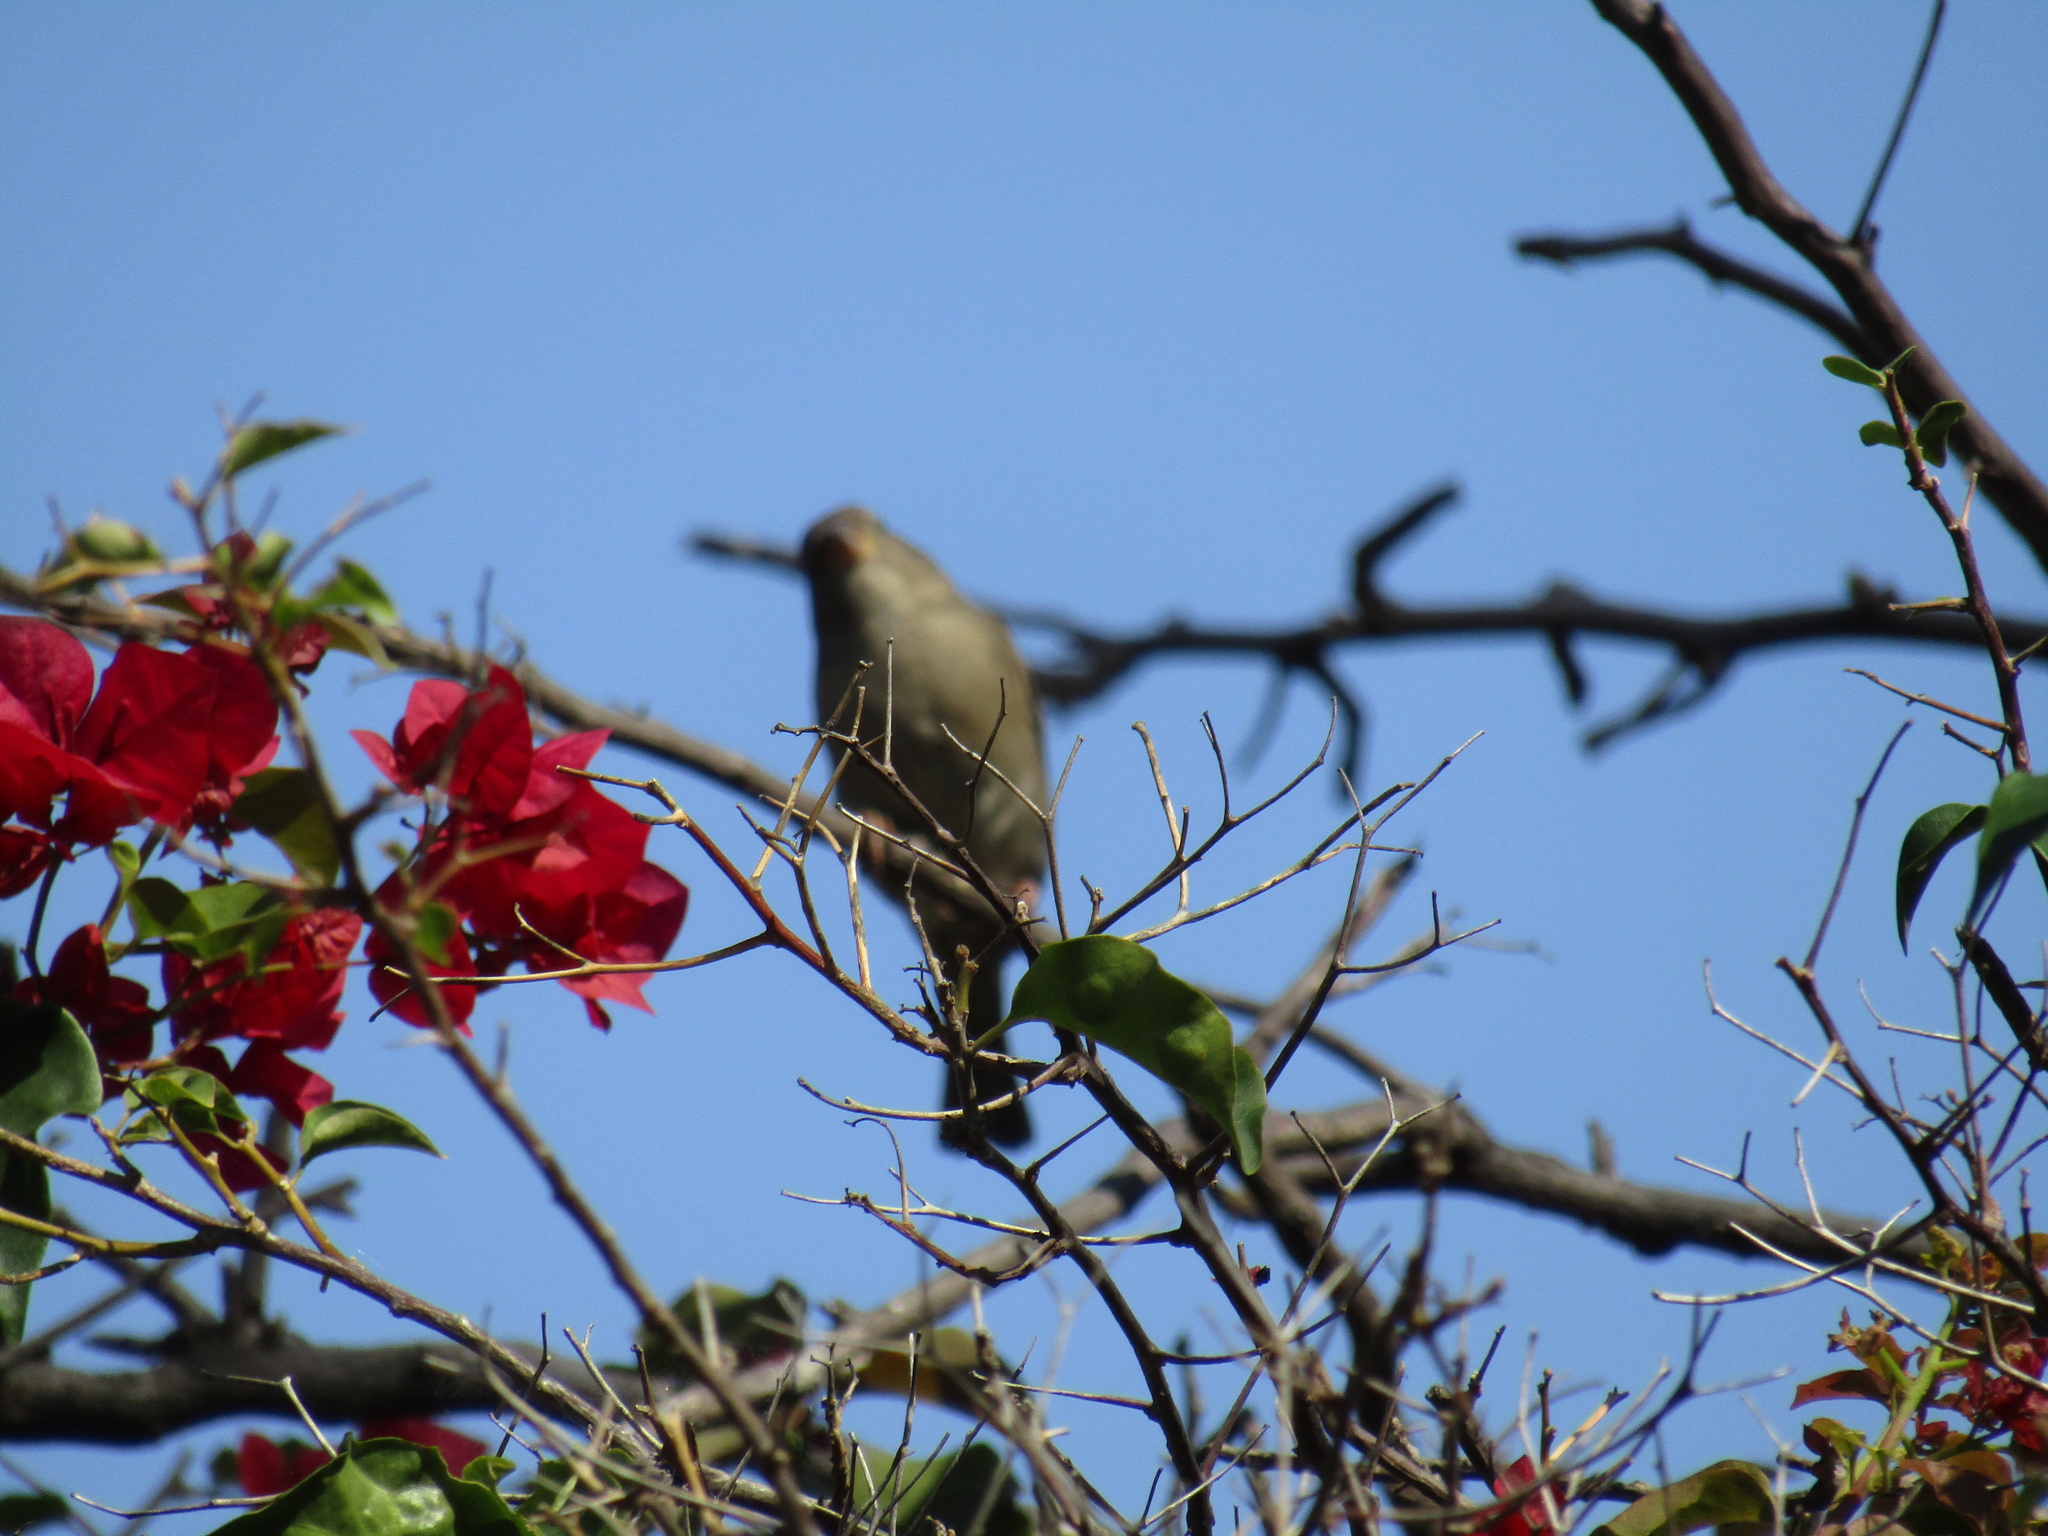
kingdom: Animalia
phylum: Chordata
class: Aves
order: Passeriformes
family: Icteridae
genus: Agelaioides
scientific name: Agelaioides badius
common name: Baywing
